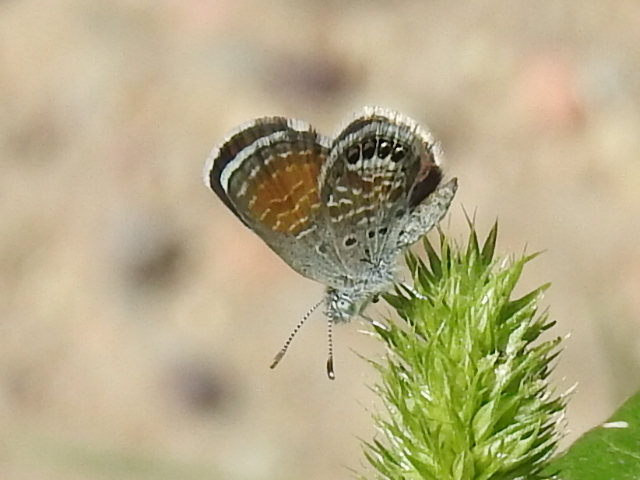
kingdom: Animalia
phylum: Arthropoda
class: Insecta
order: Lepidoptera
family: Lycaenidae
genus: Brephidium
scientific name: Brephidium exilis
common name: Pygmy blue
